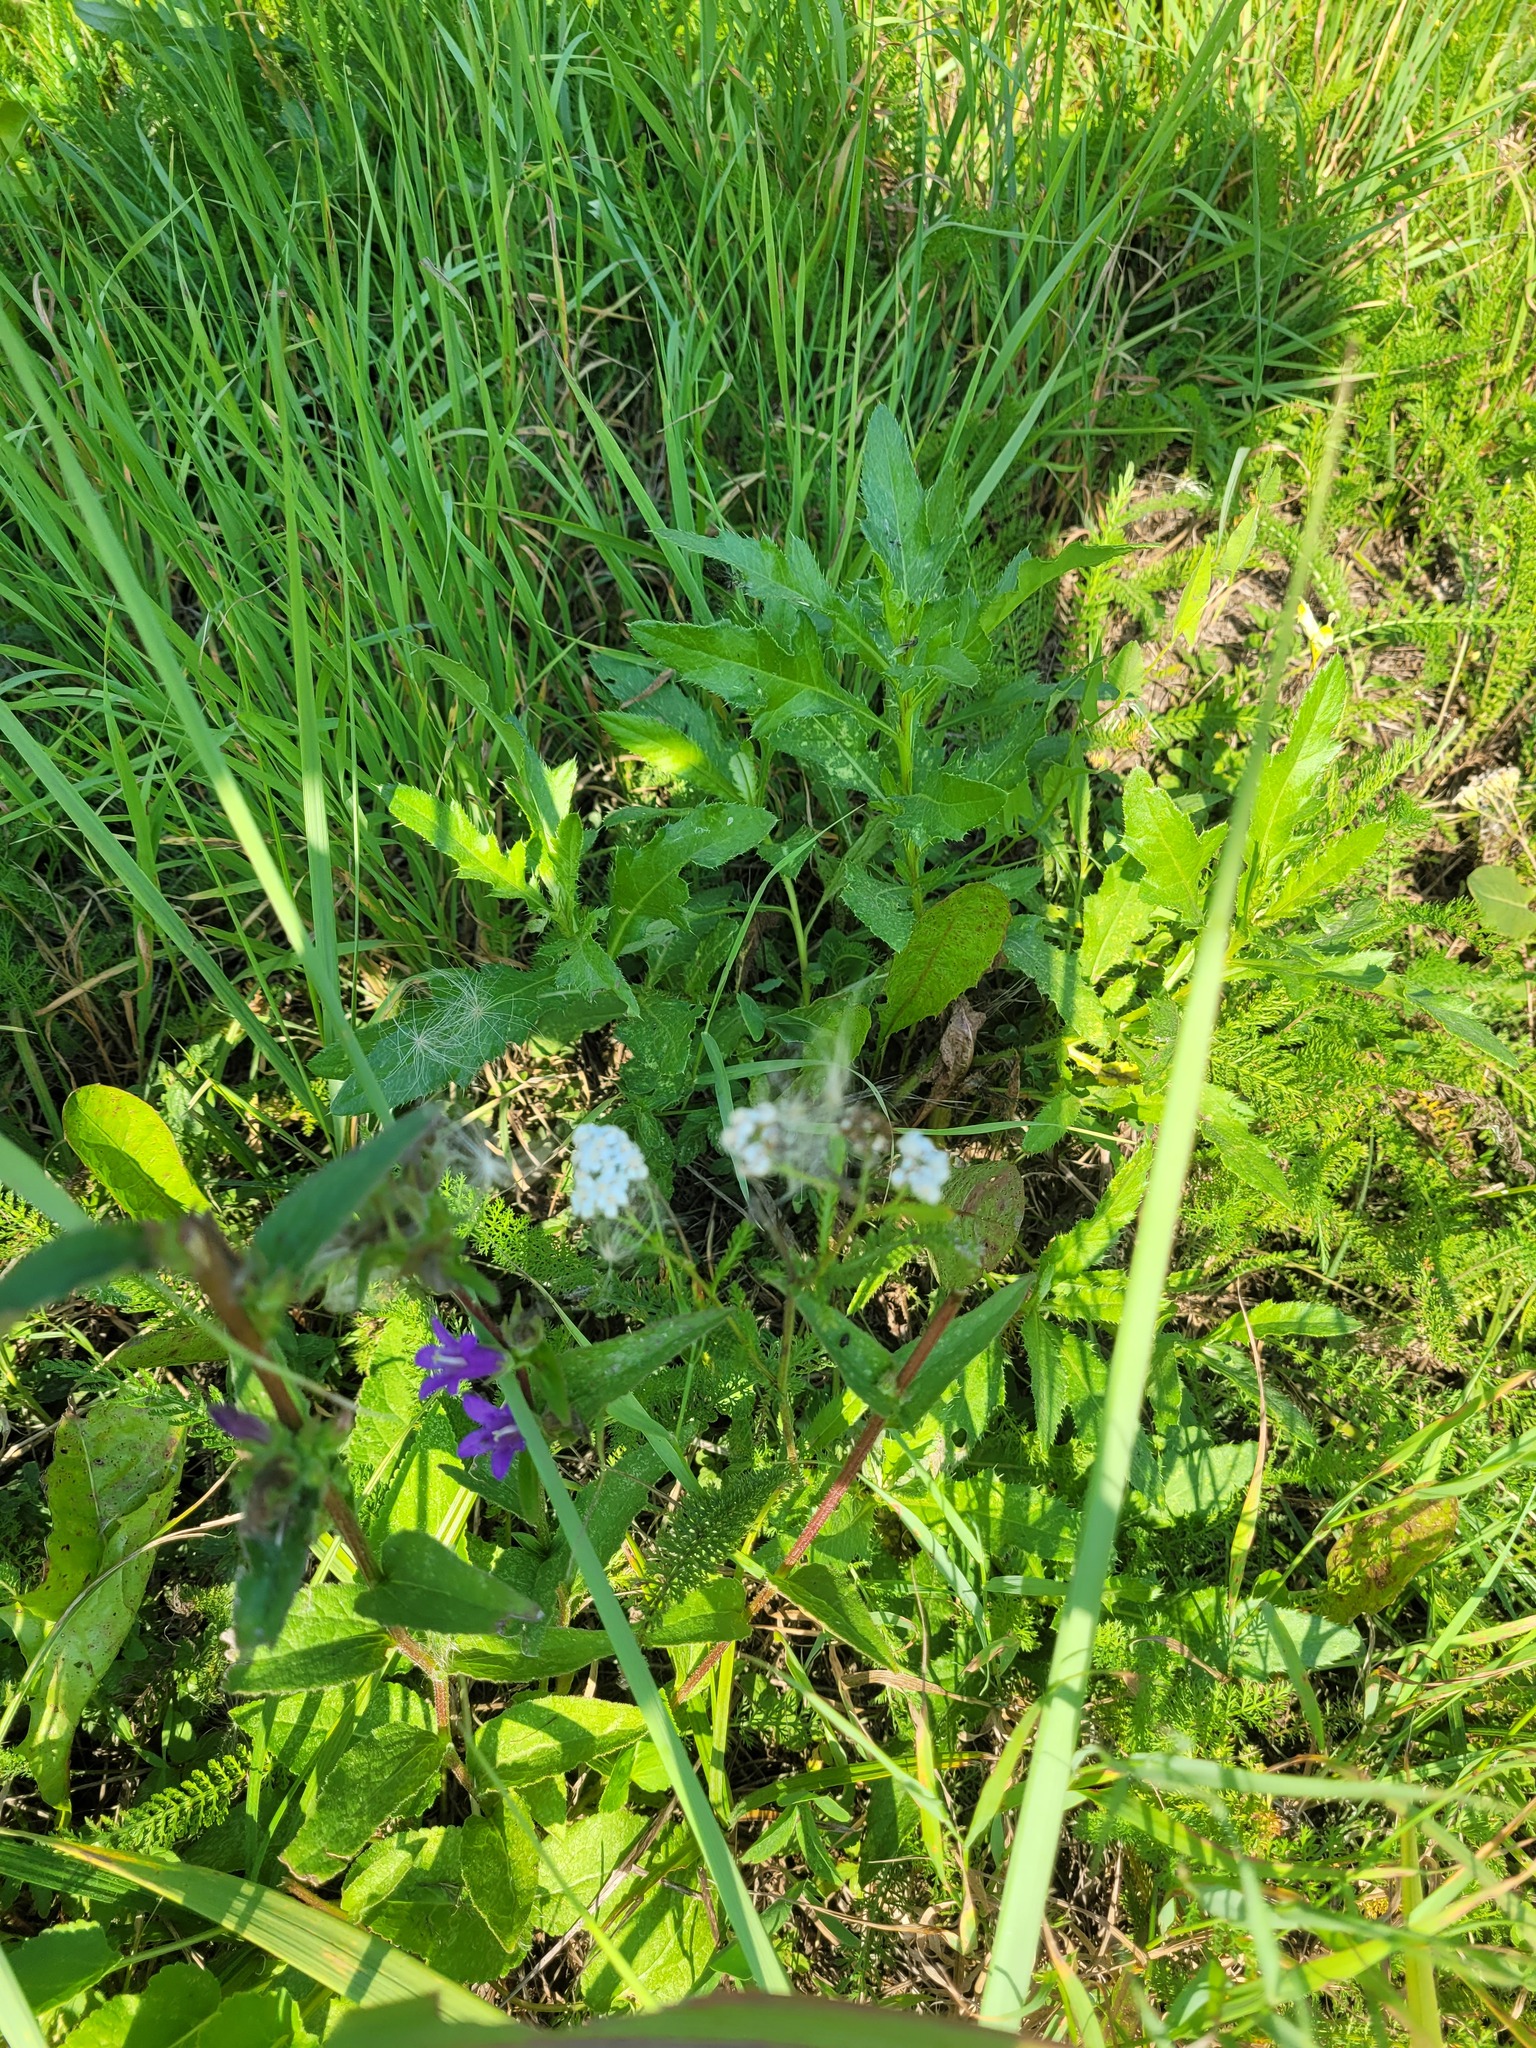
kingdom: Plantae
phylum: Tracheophyta
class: Magnoliopsida
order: Asterales
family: Asteraceae
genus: Achillea
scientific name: Achillea millefolium
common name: Yarrow
